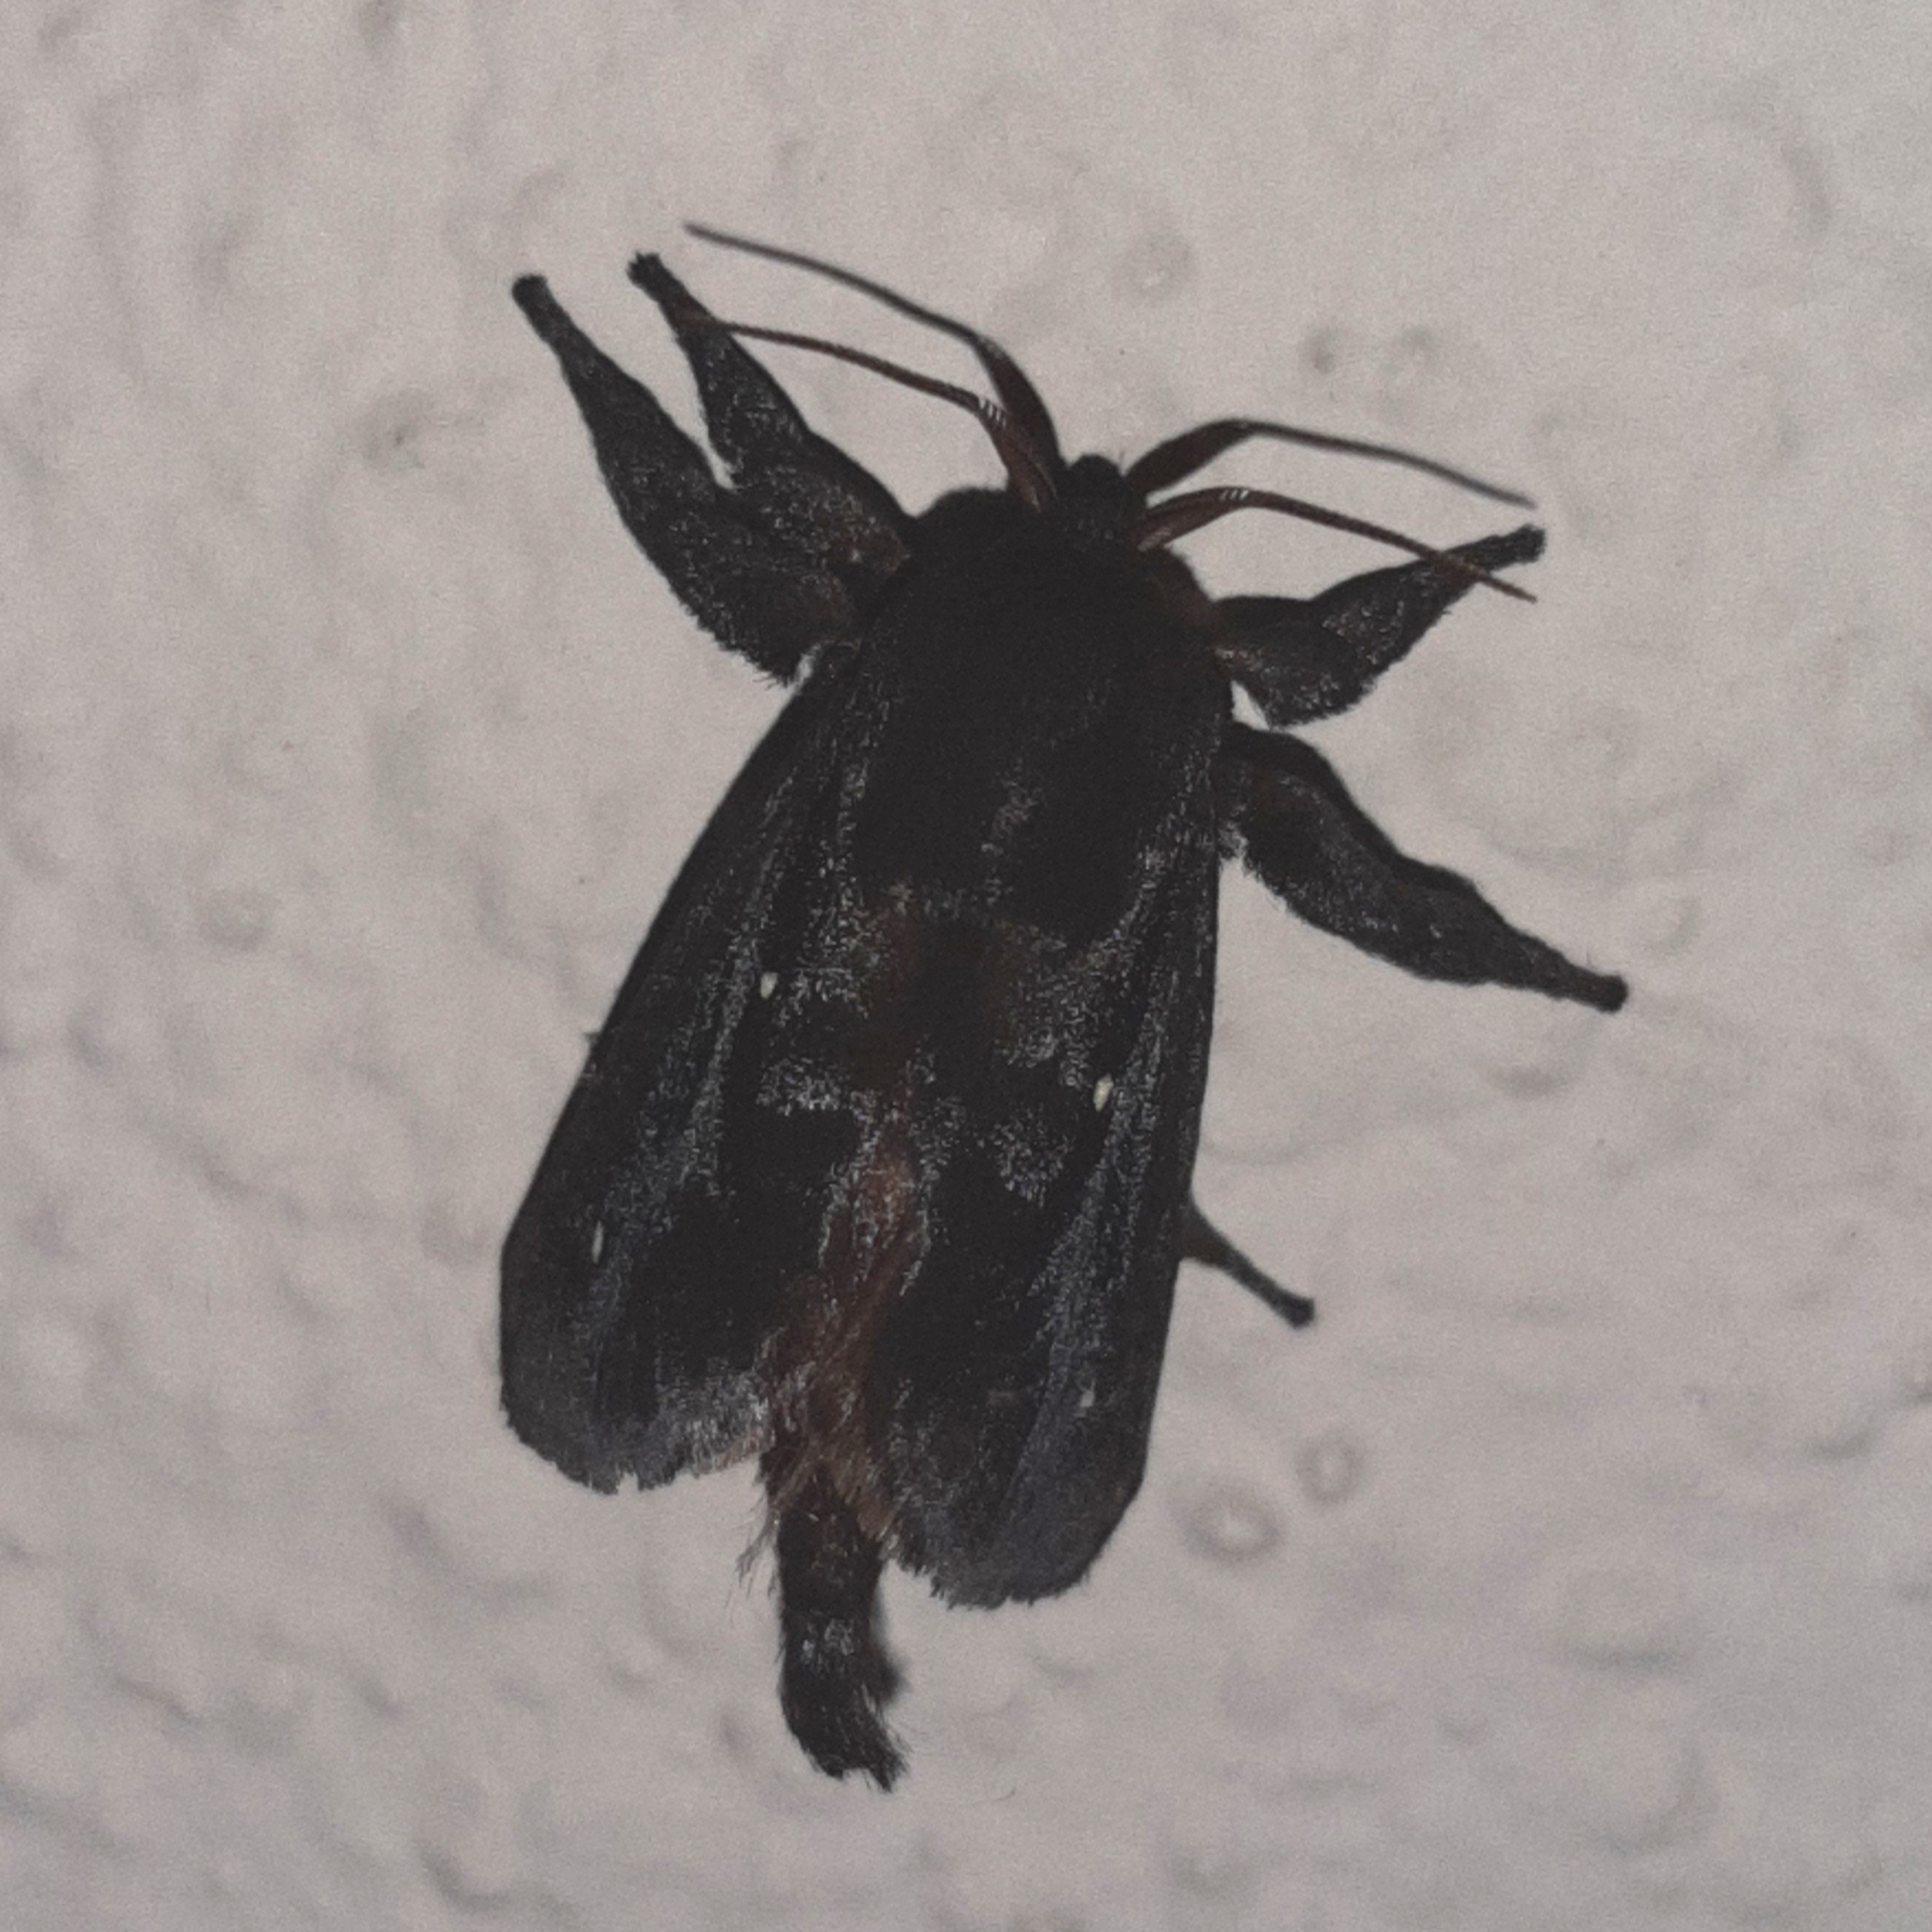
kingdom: Animalia
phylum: Arthropoda
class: Insecta
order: Lepidoptera
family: Limacodidae
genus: Acharia
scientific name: Acharia sarans
